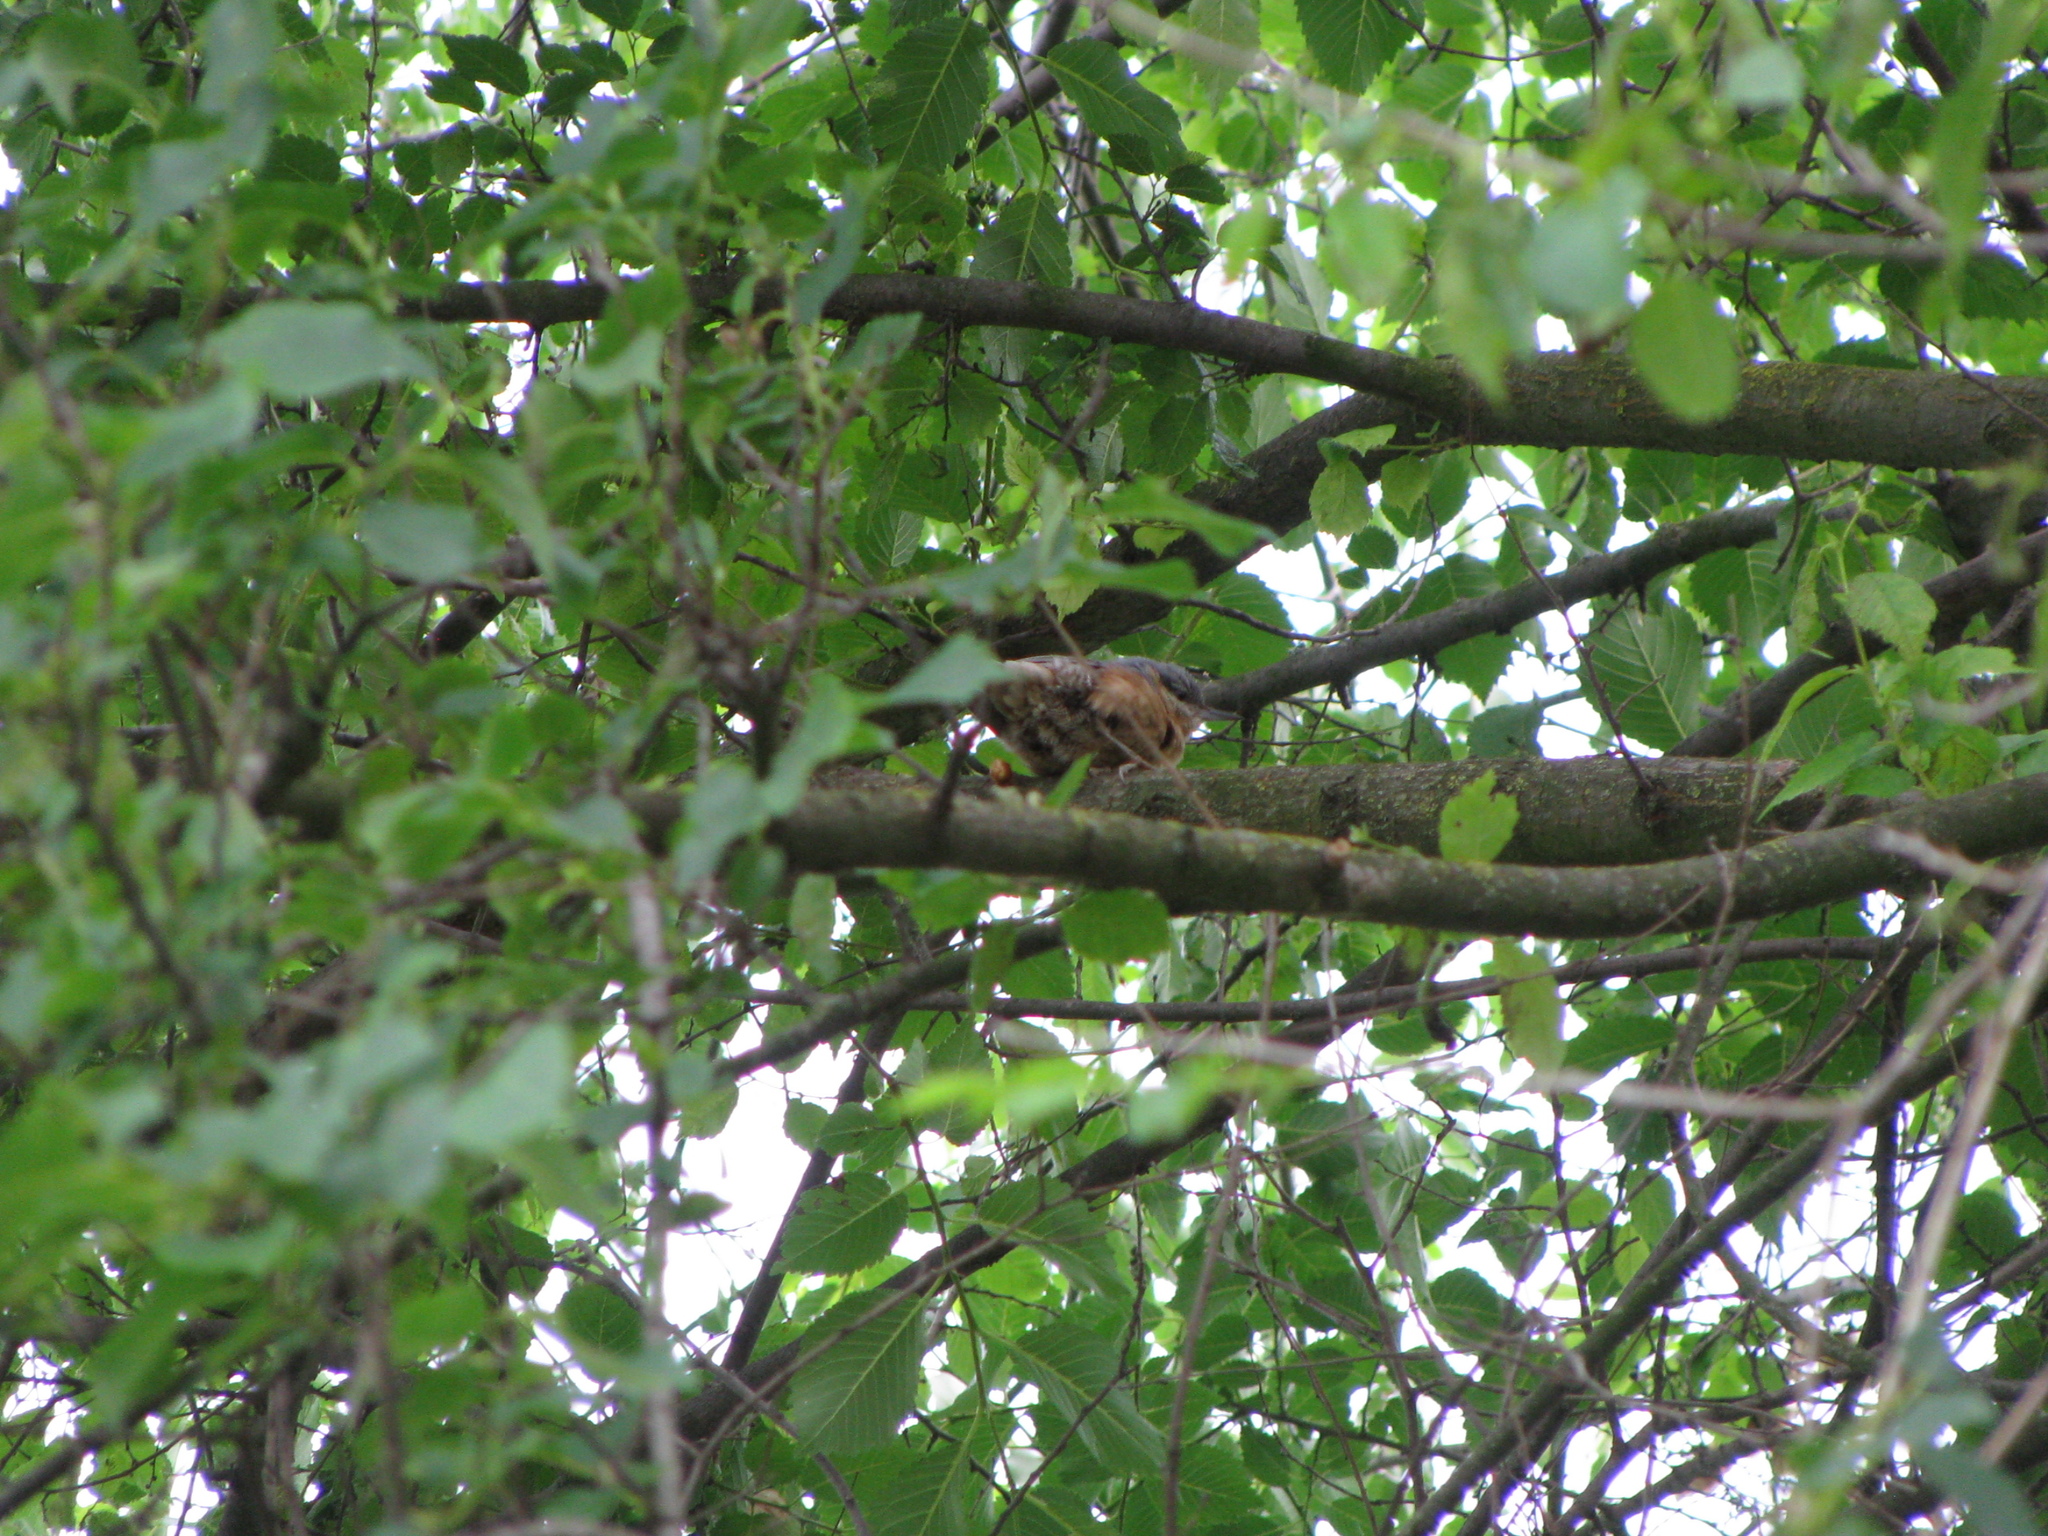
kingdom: Animalia
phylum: Chordata
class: Aves
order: Passeriformes
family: Sittidae
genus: Sitta
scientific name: Sitta europaea
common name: Eurasian nuthatch
